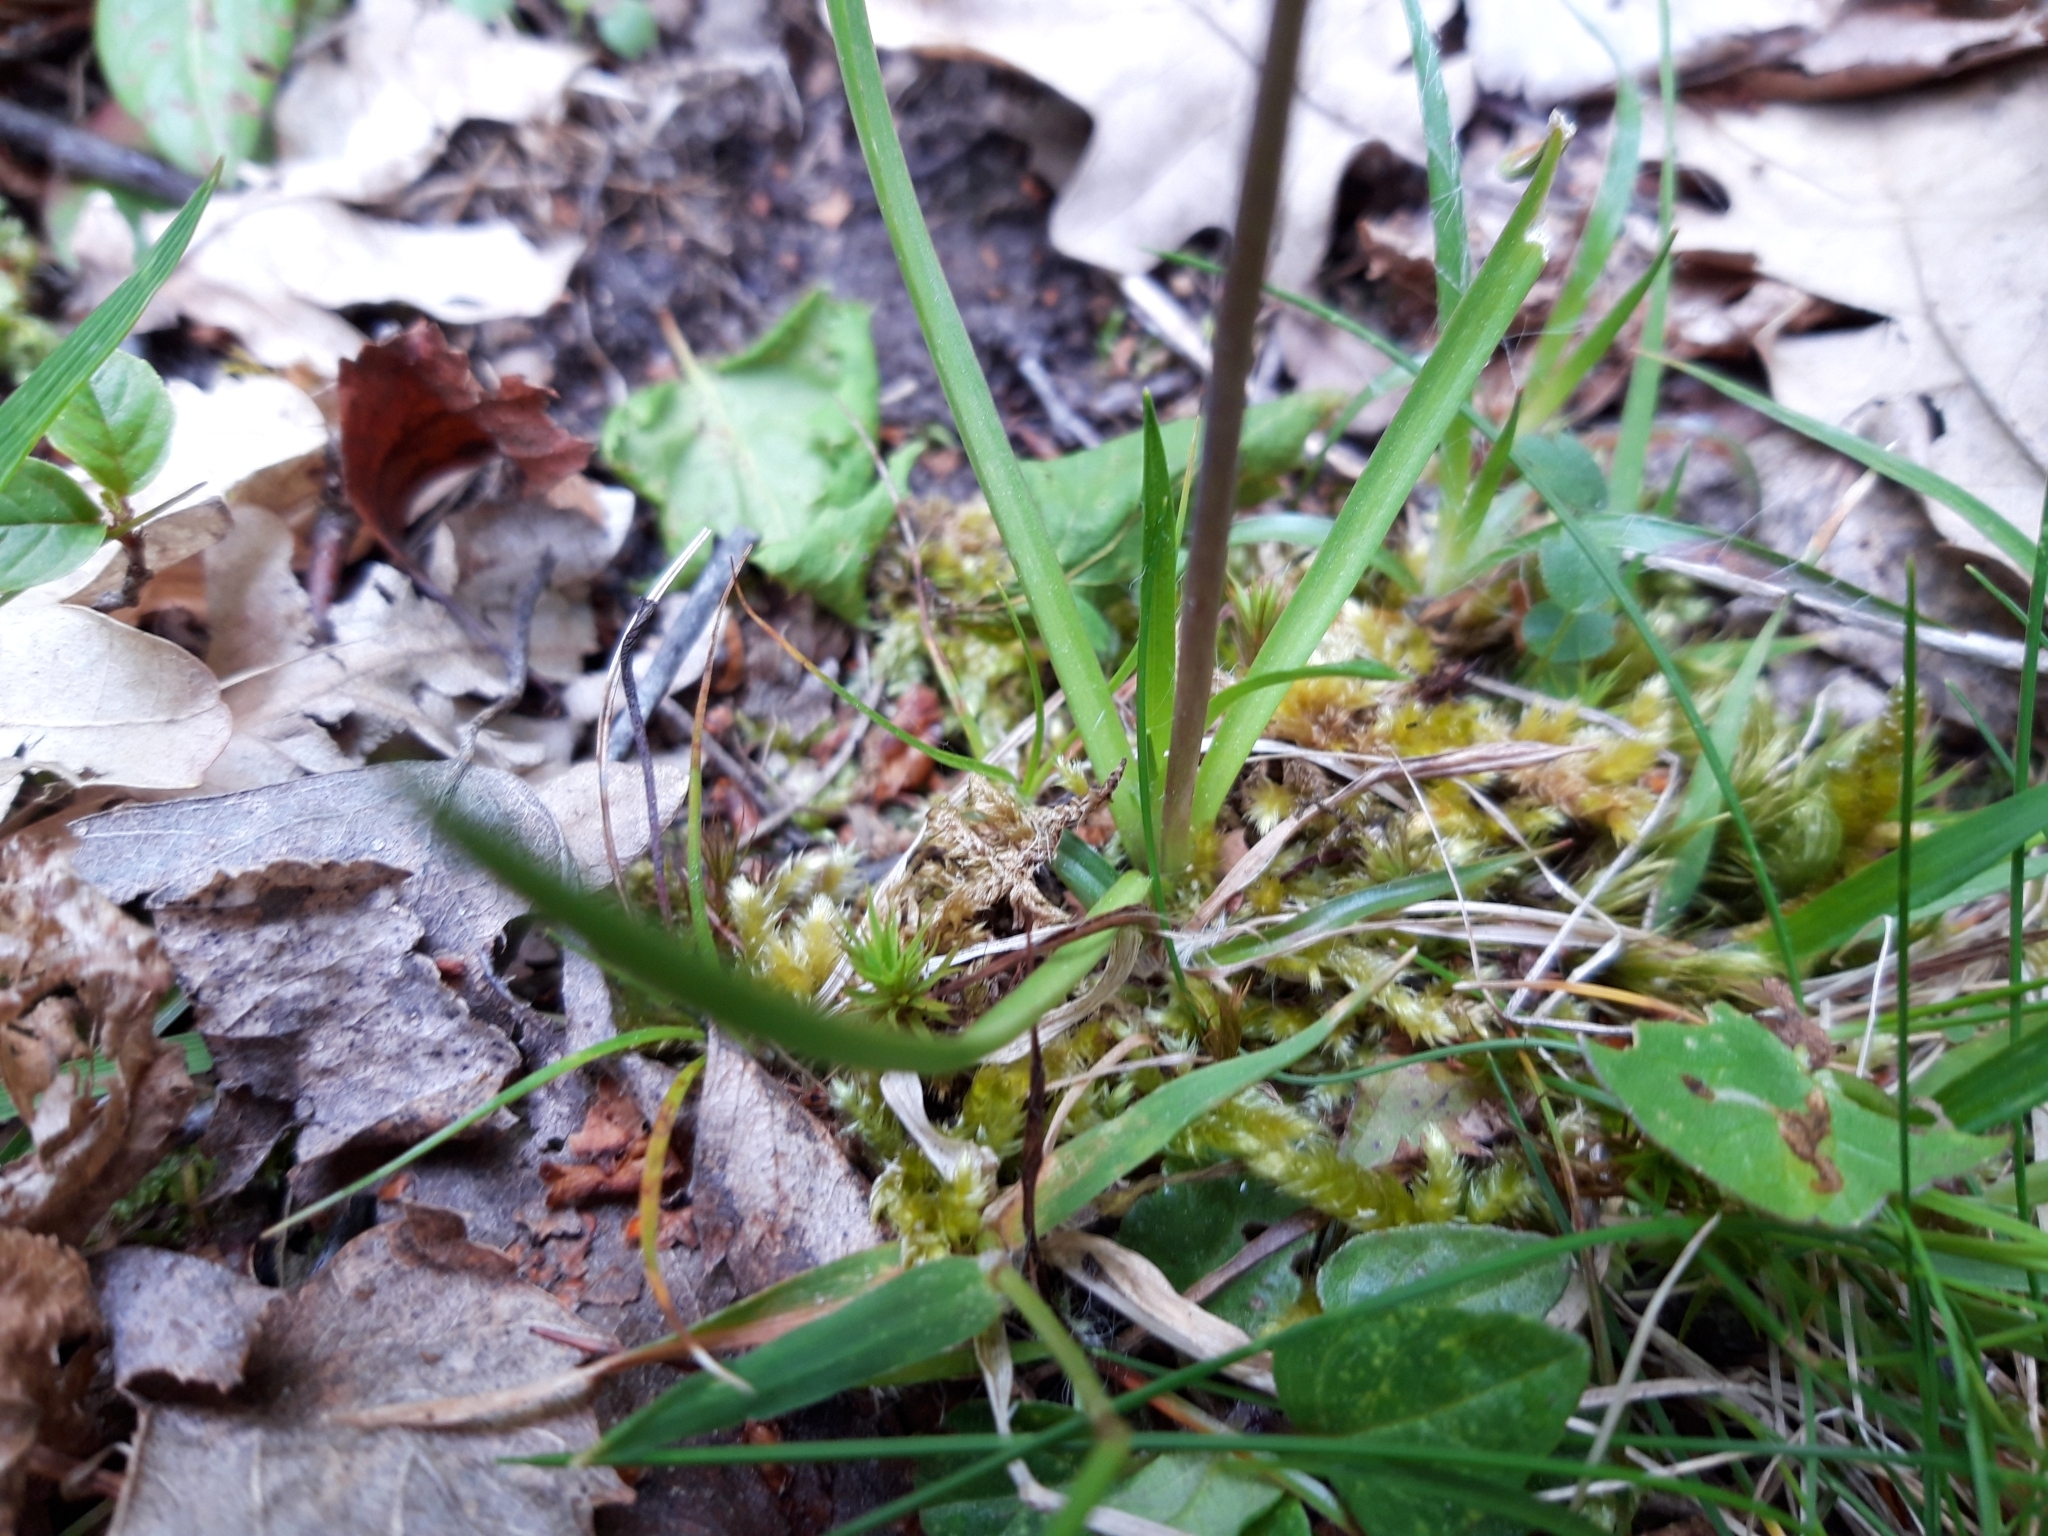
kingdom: Plantae
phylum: Tracheophyta
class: Liliopsida
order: Asparagales
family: Asparagaceae
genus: Scilla
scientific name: Scilla verna
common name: Spring squill
